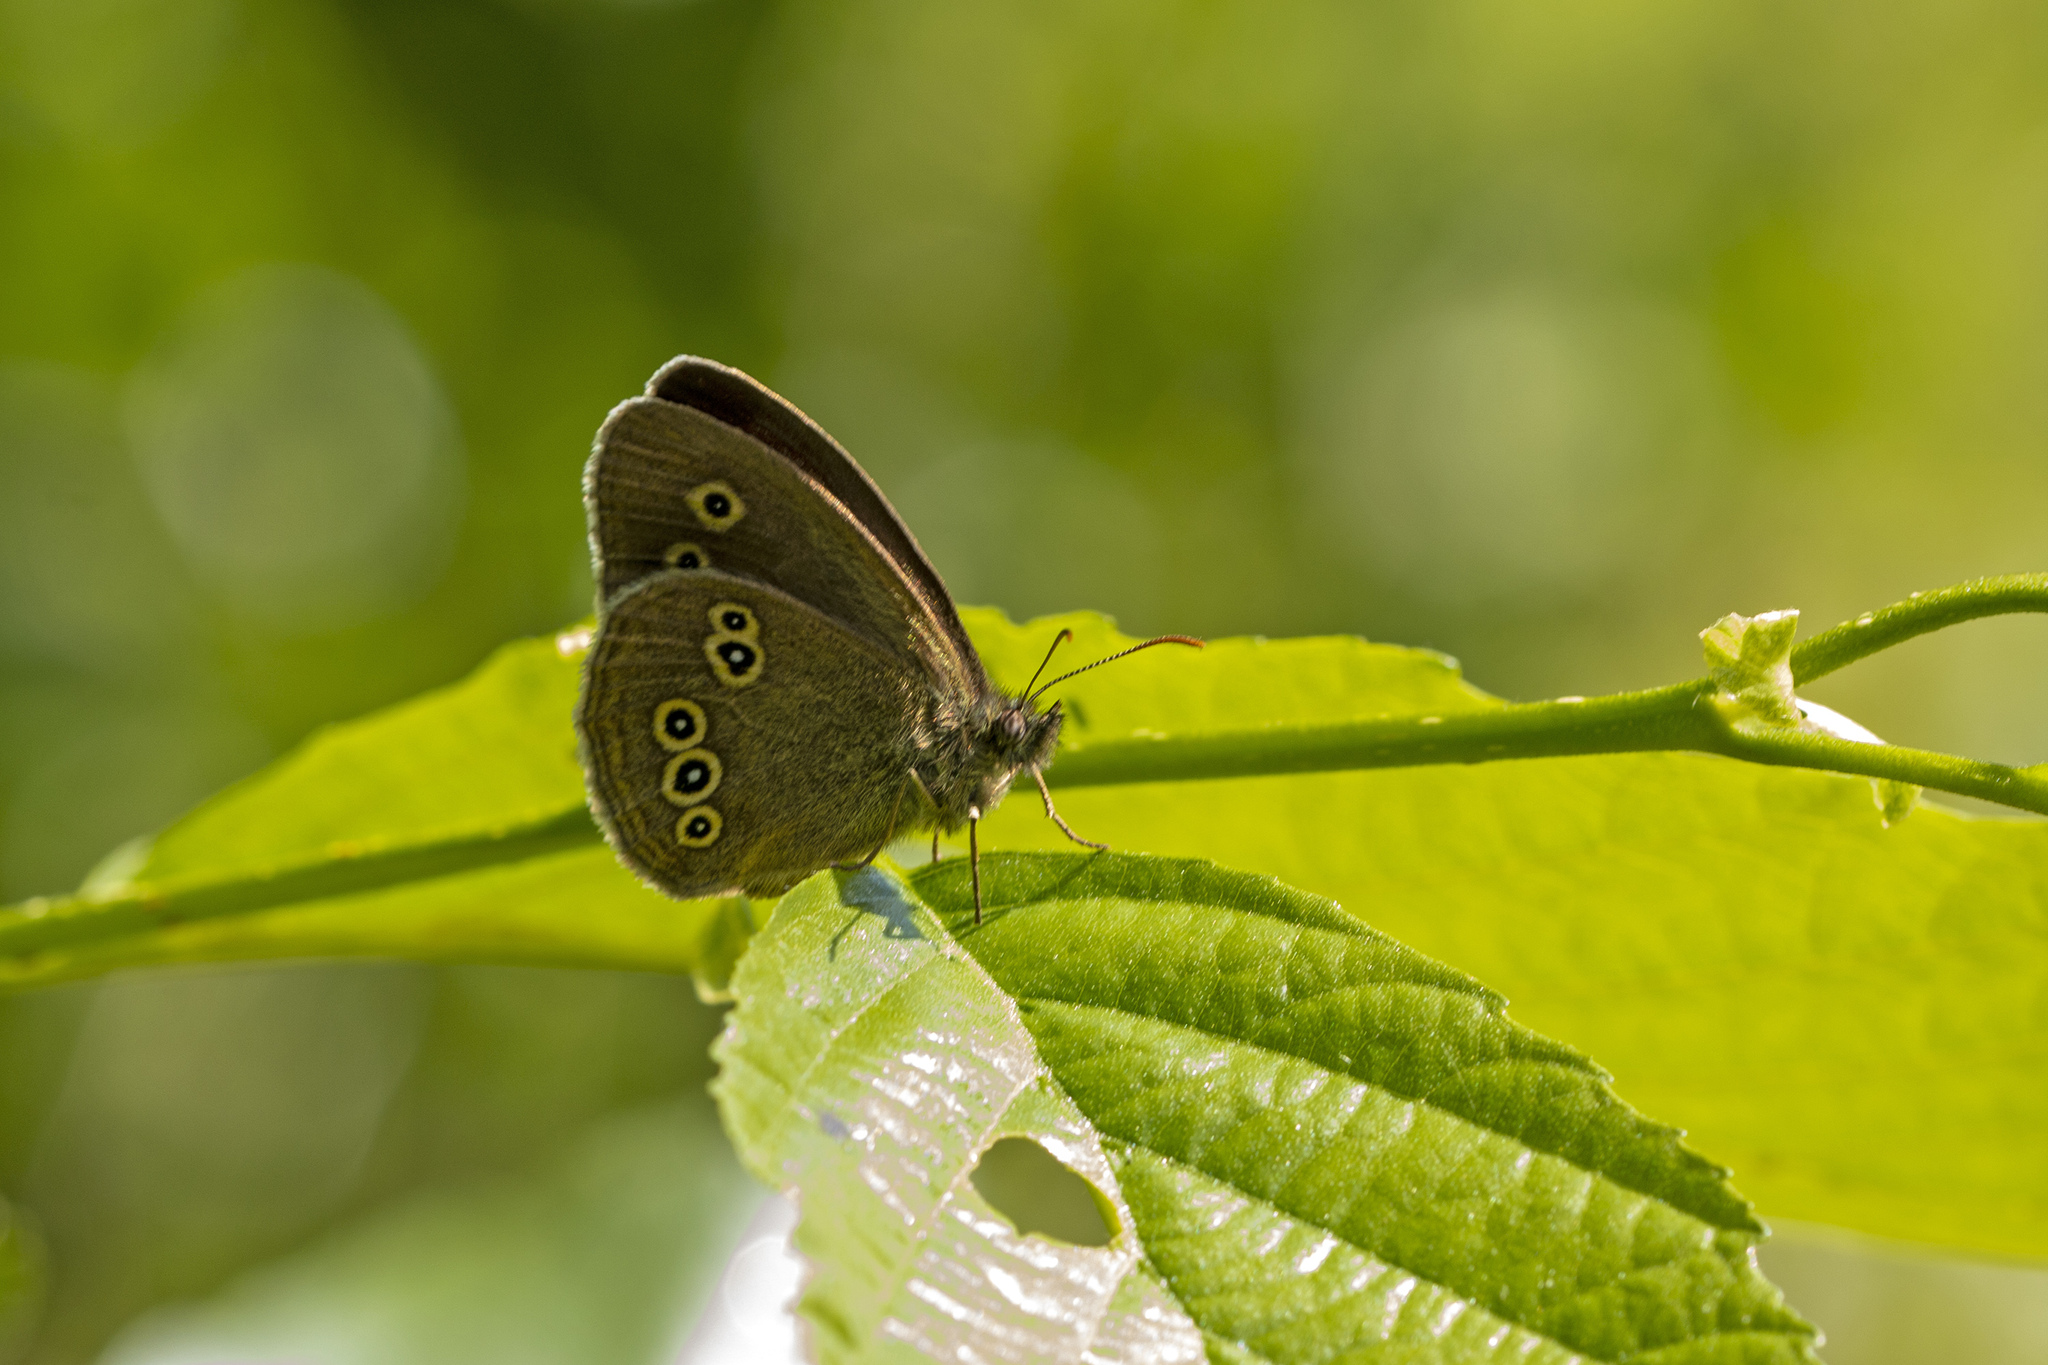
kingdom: Animalia
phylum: Arthropoda
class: Insecta
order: Lepidoptera
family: Nymphalidae
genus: Aphantopus
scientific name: Aphantopus hyperantus
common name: Ringlet
